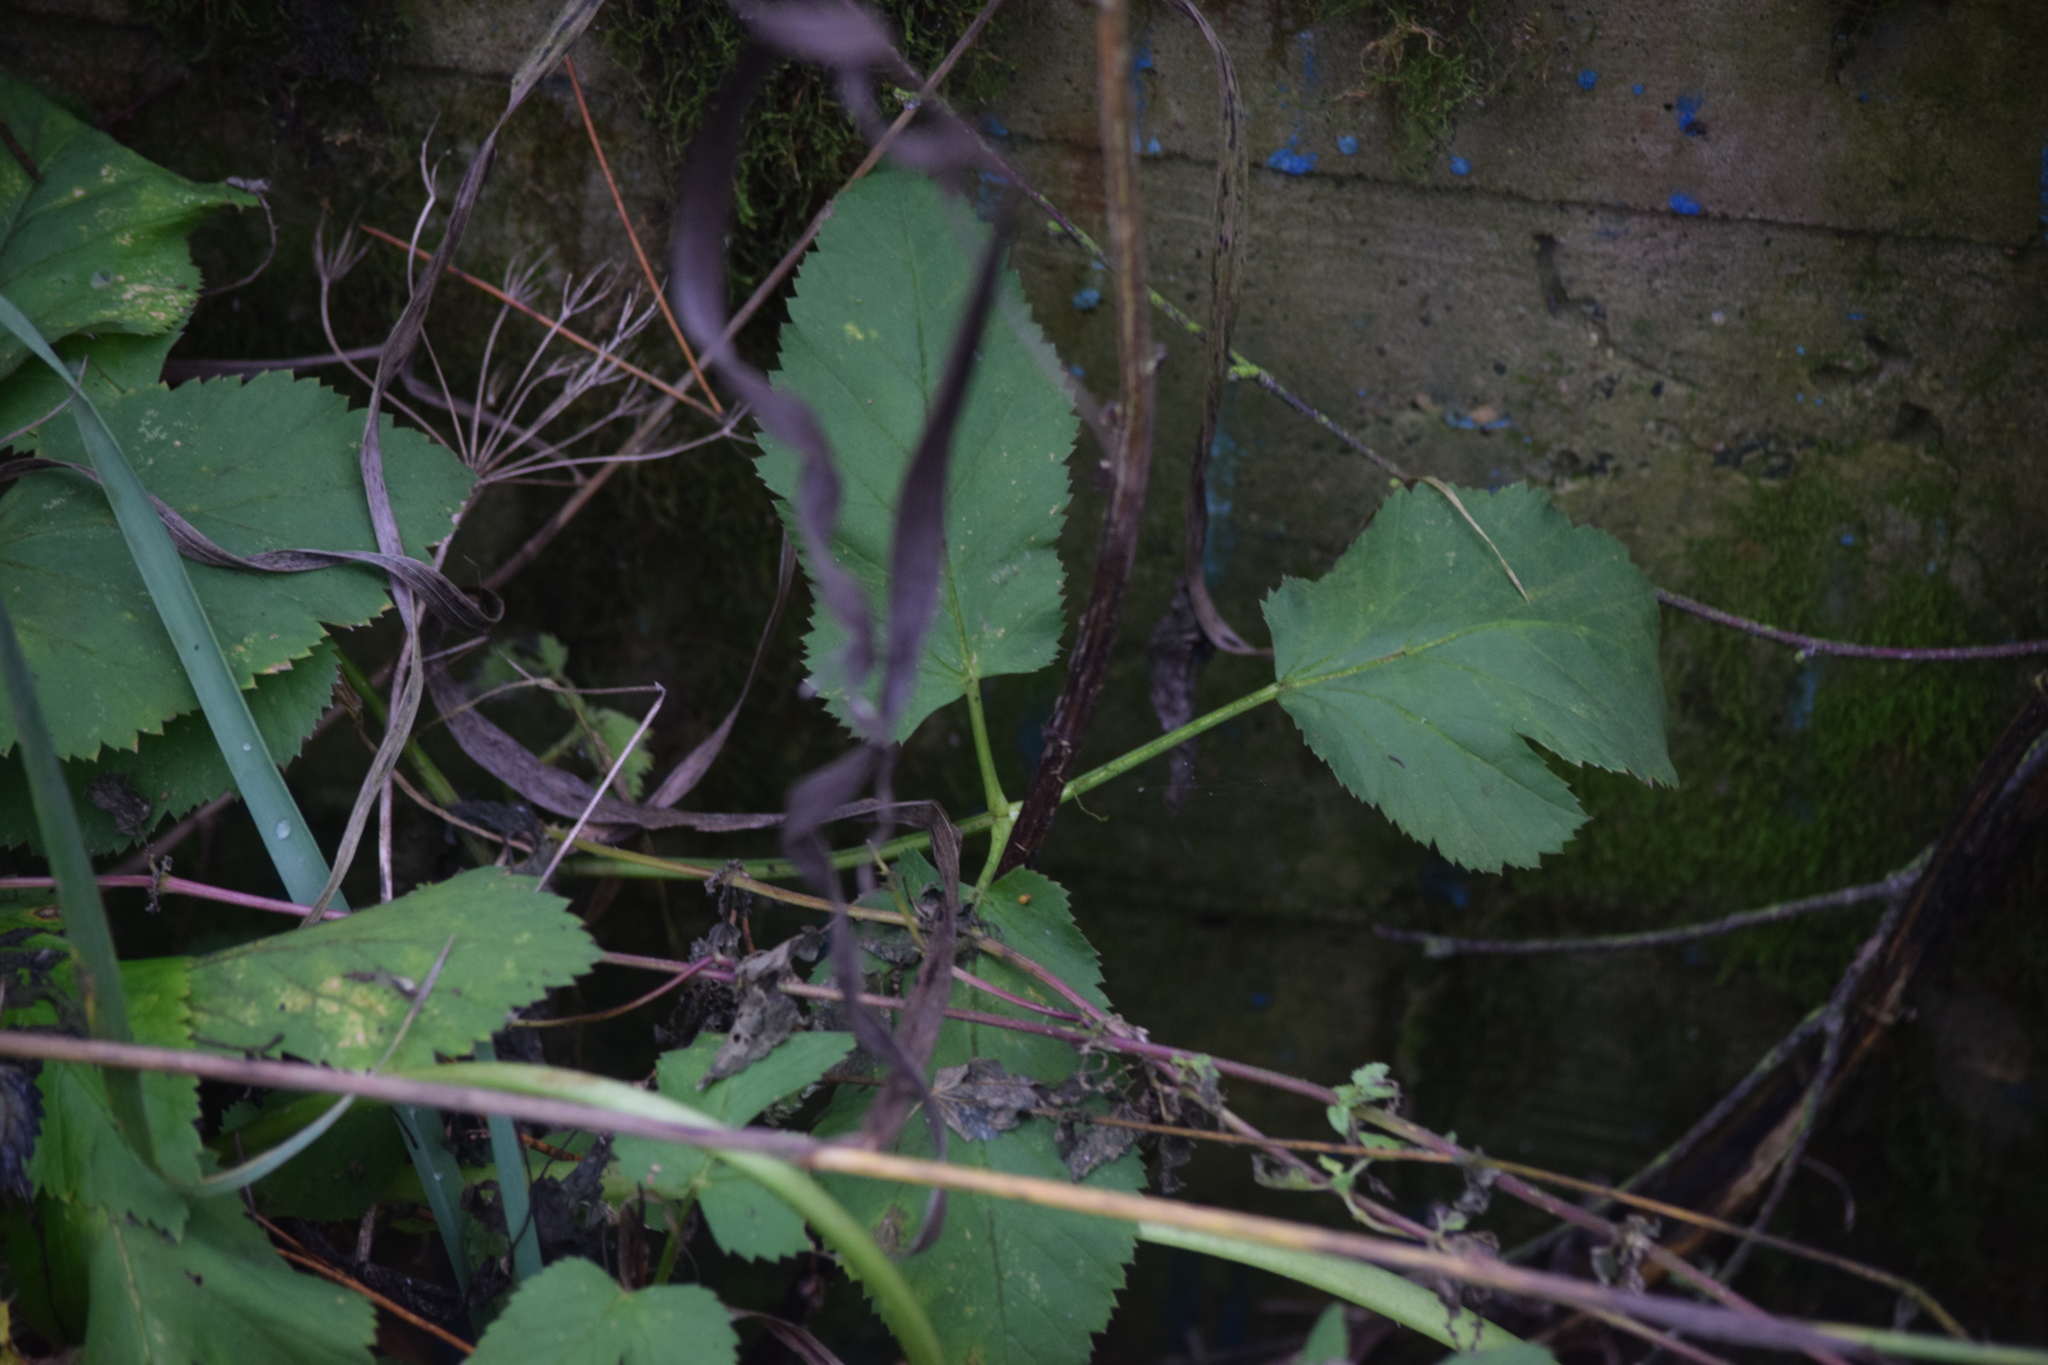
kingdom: Plantae
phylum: Tracheophyta
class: Magnoliopsida
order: Apiales
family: Apiaceae
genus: Aegopodium
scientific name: Aegopodium podagraria
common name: Ground-elder
